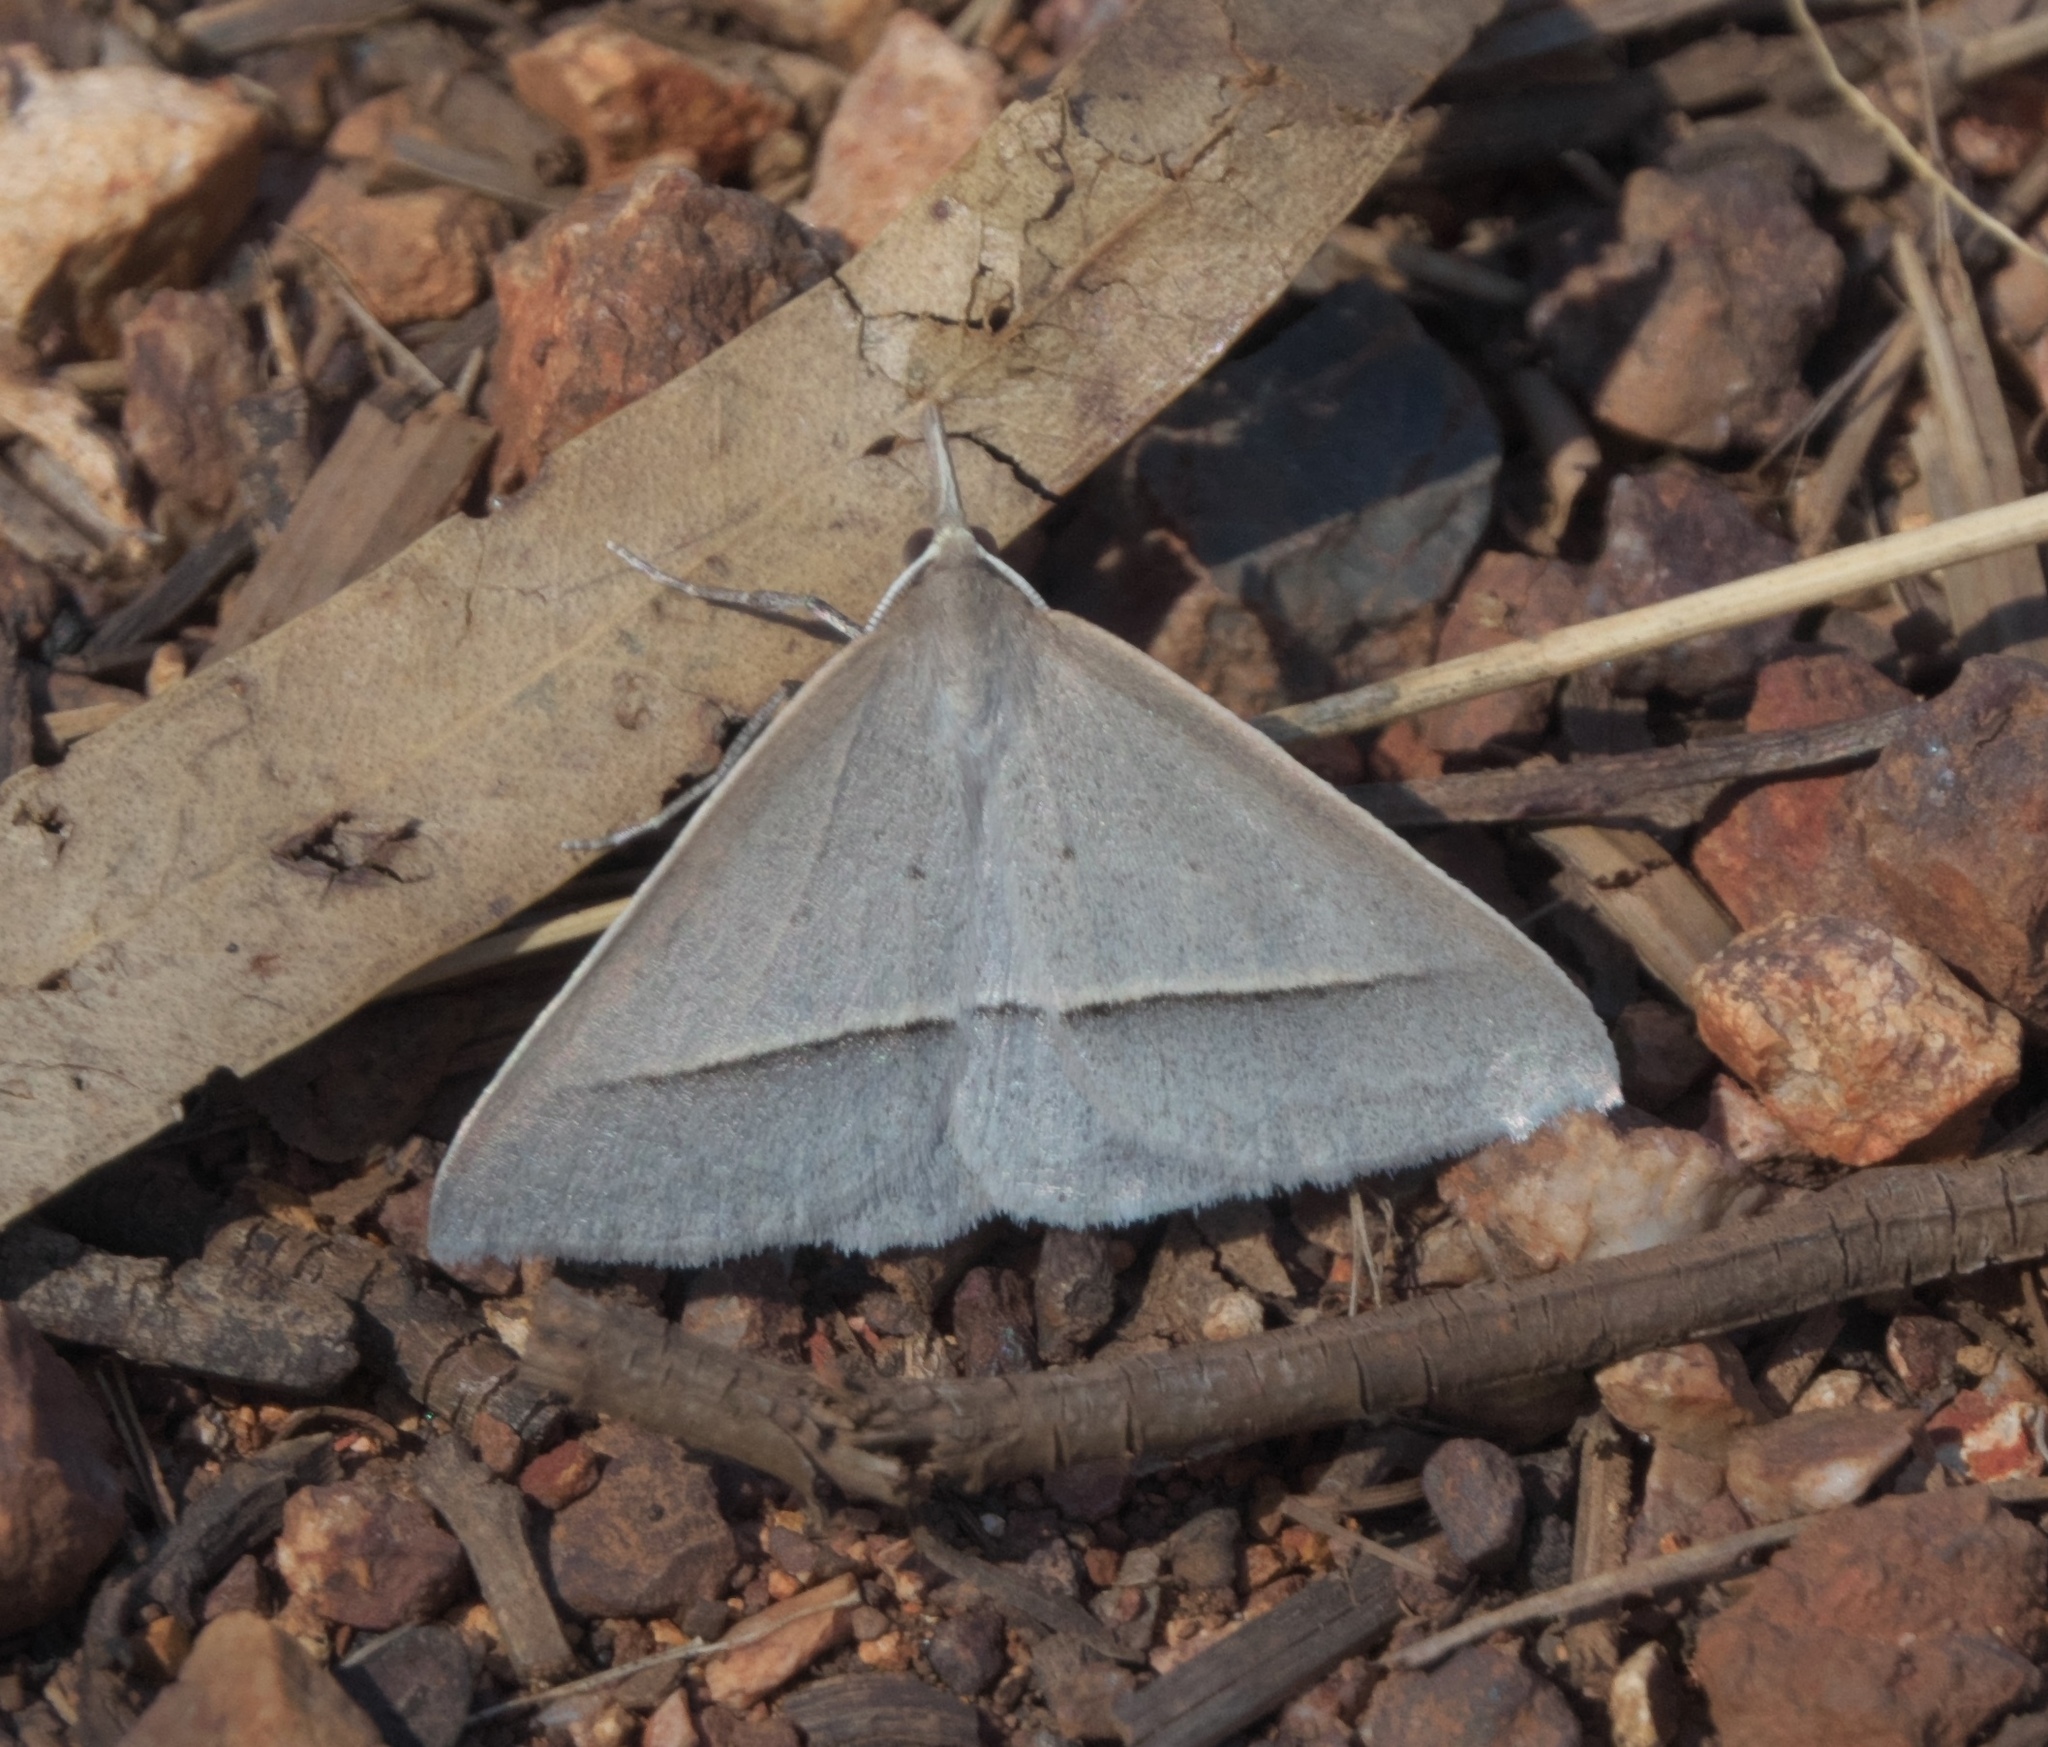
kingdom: Animalia
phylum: Arthropoda
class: Insecta
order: Lepidoptera
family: Geometridae
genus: Epidesmia
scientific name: Epidesmia perfabricata
